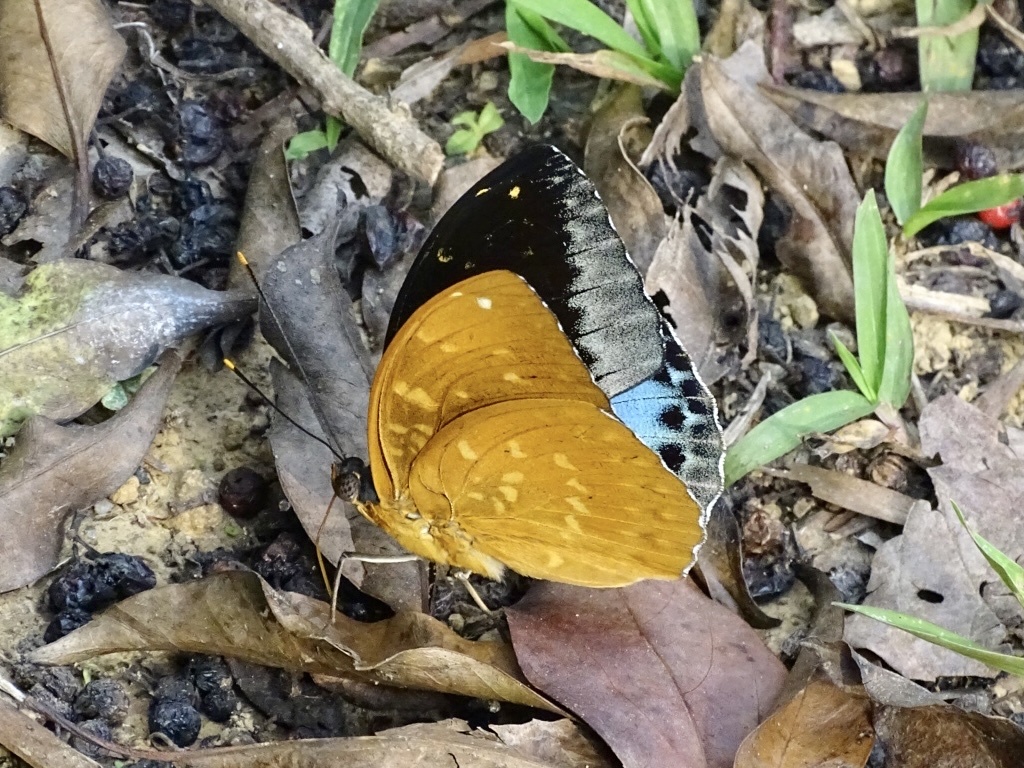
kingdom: Animalia
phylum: Arthropoda
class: Insecta
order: Lepidoptera
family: Nymphalidae
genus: Lexias
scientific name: Lexias pardalis
